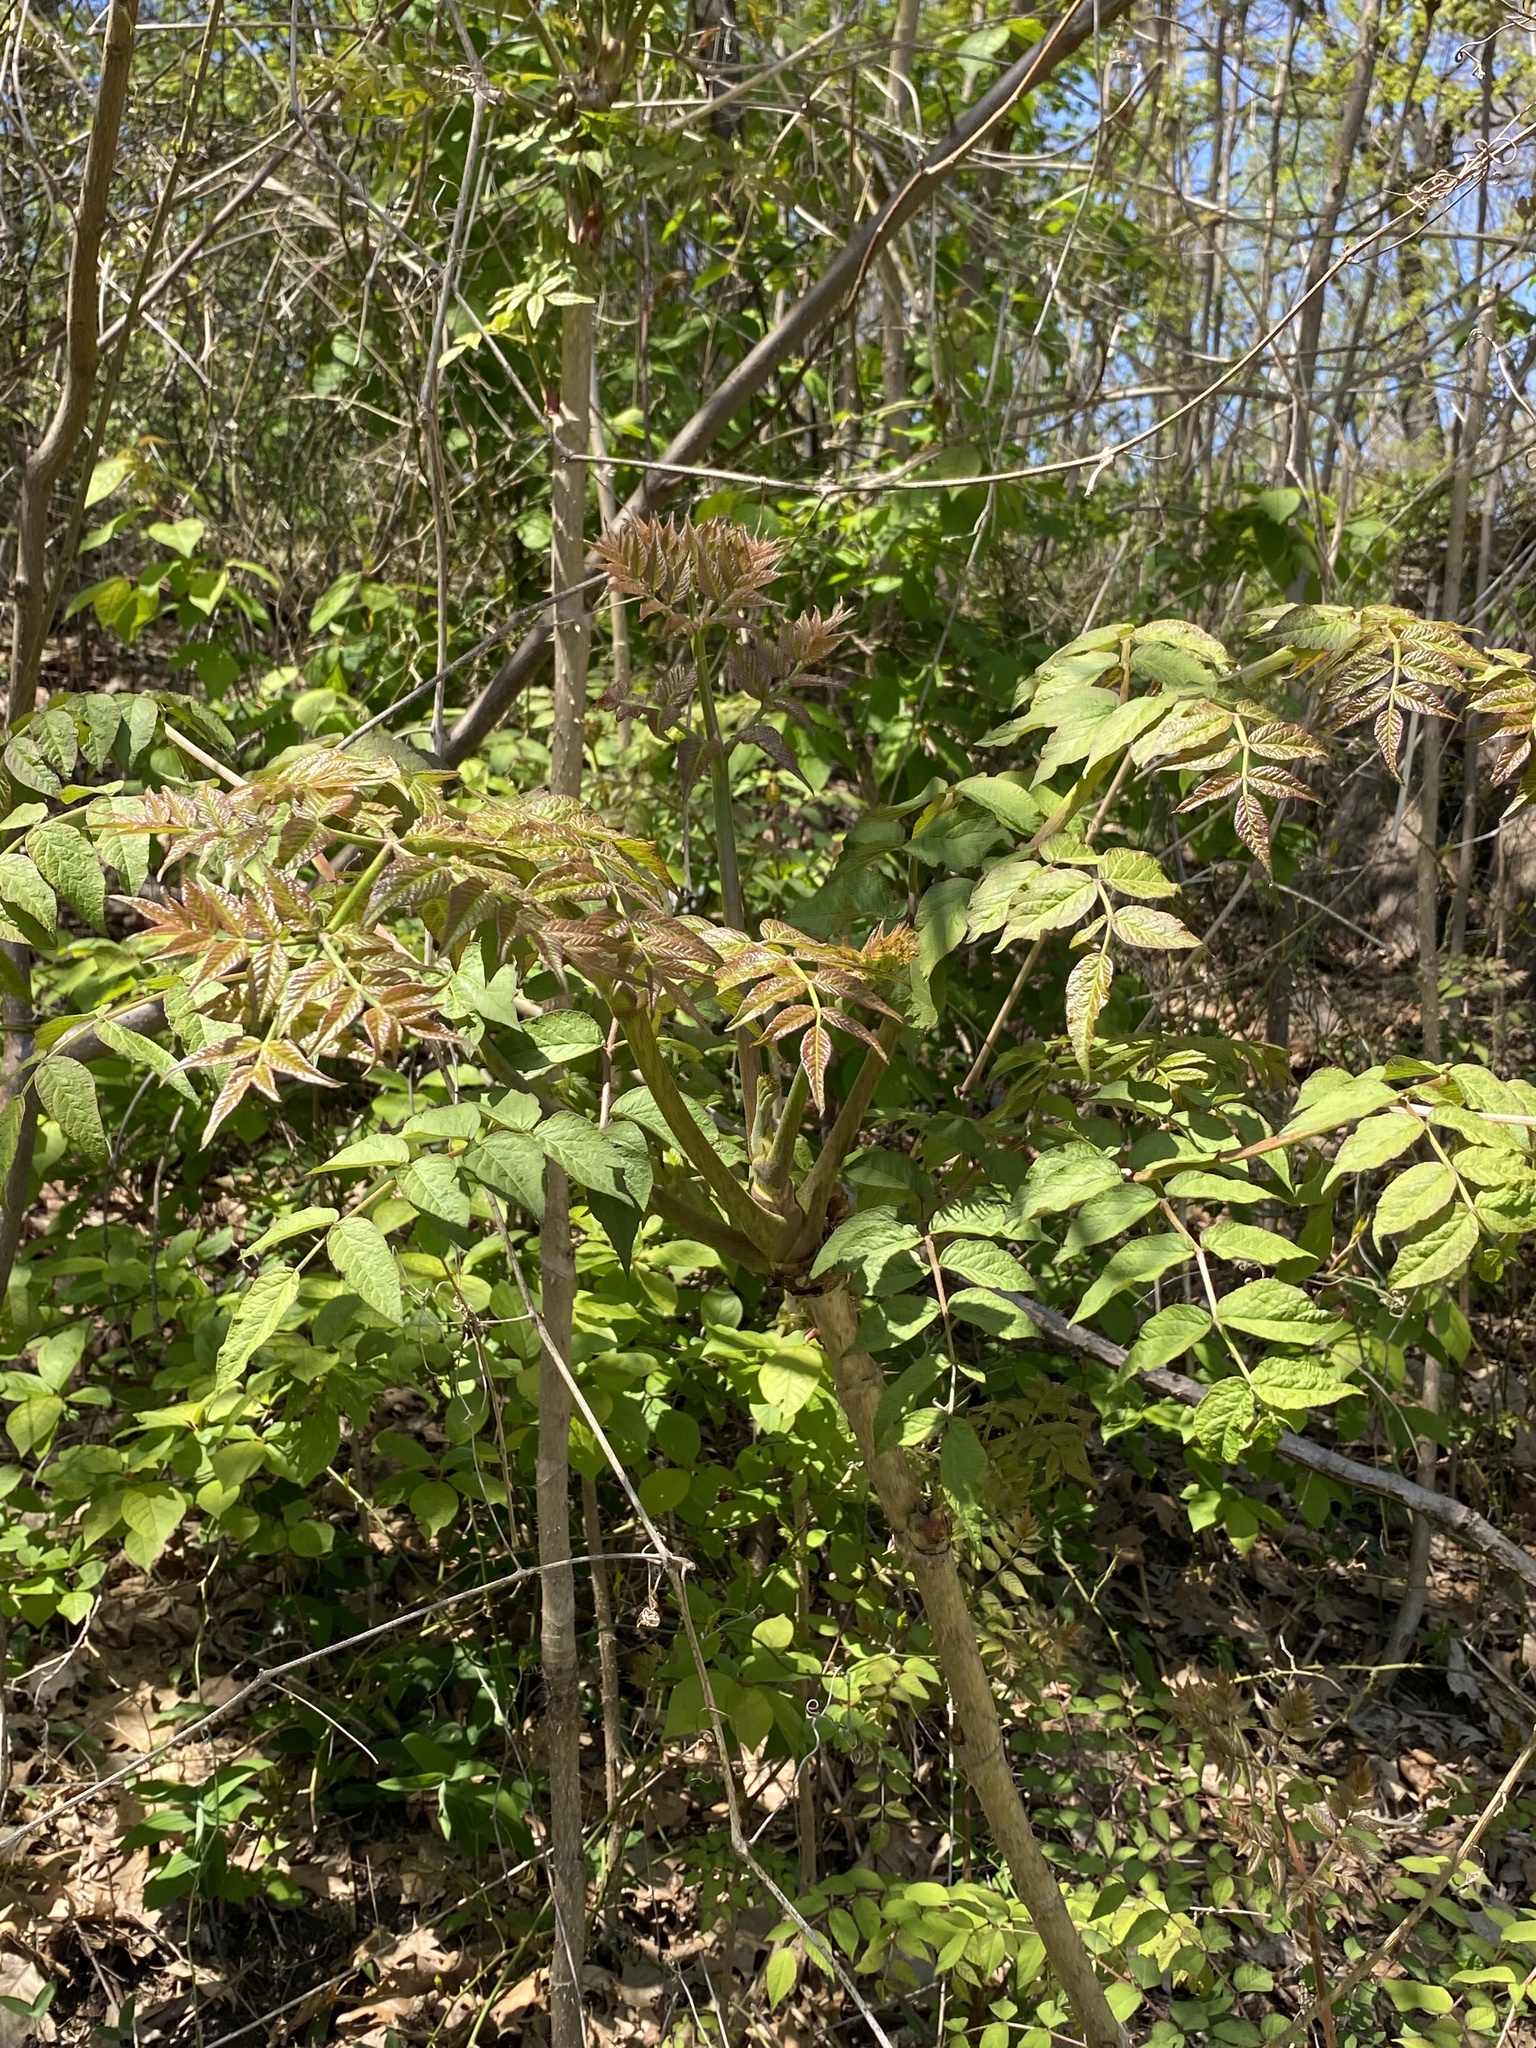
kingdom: Plantae
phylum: Tracheophyta
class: Magnoliopsida
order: Apiales
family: Araliaceae
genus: Aralia
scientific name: Aralia elata
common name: Japanese angelica-tree
